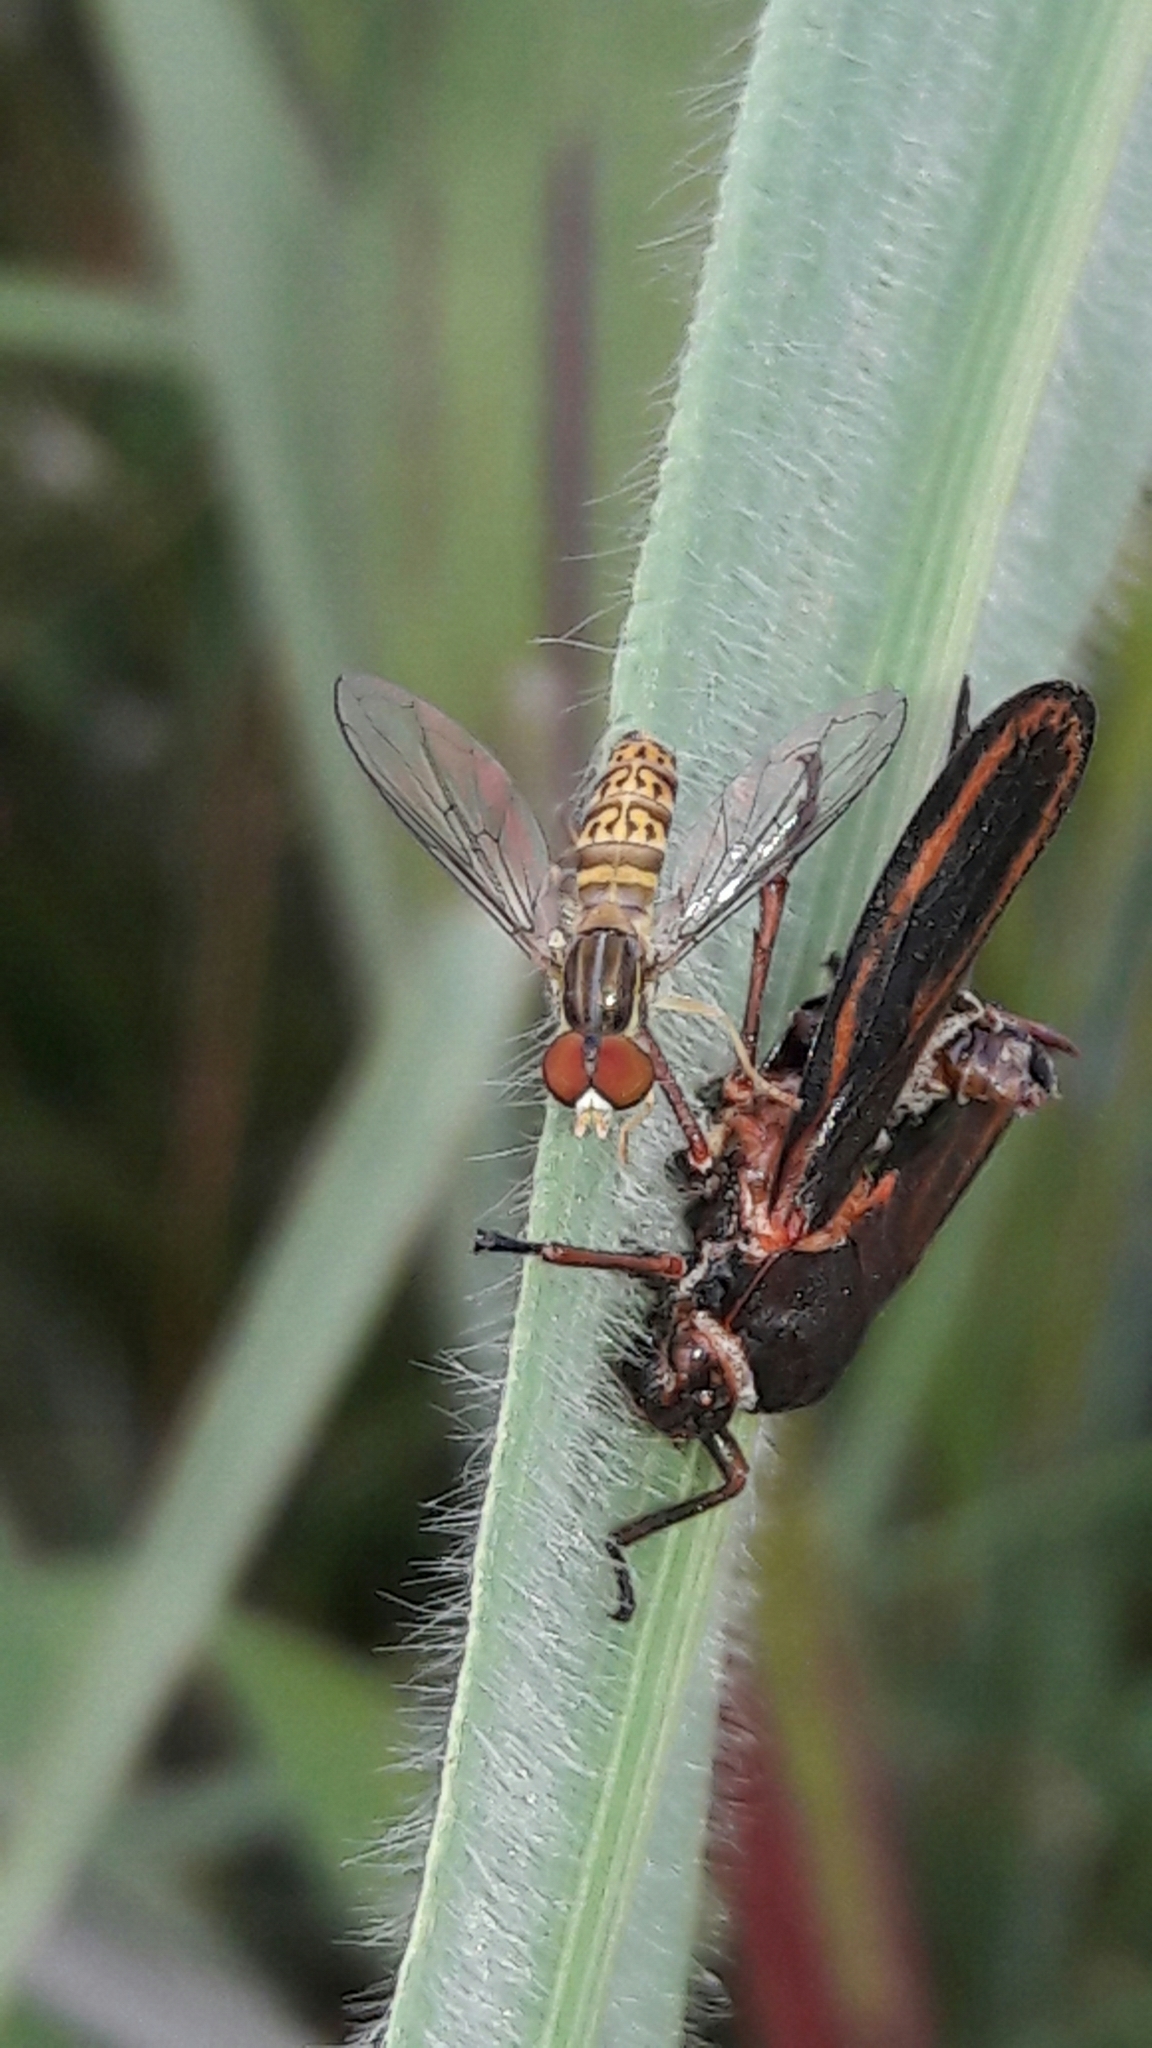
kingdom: Animalia
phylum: Arthropoda
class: Insecta
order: Diptera
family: Syrphidae
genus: Toxomerus
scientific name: Toxomerus
